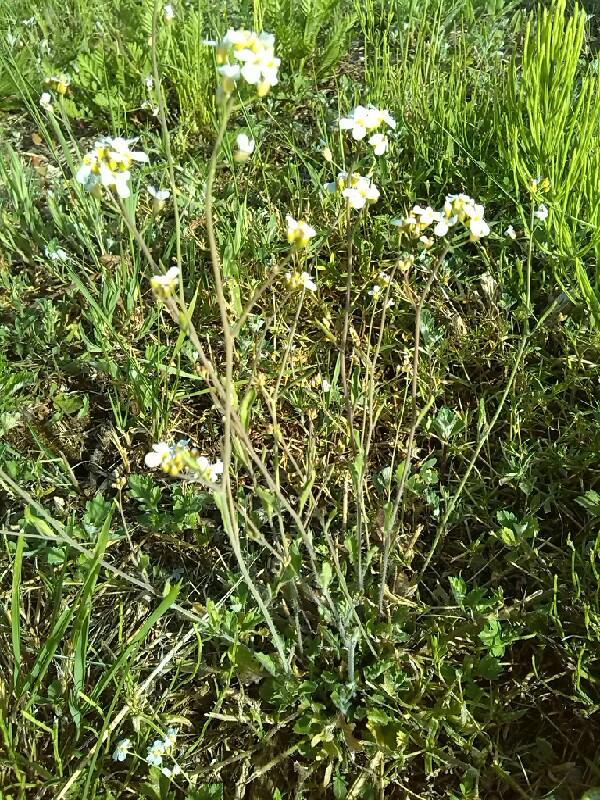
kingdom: Plantae
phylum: Tracheophyta
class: Magnoliopsida
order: Brassicales
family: Brassicaceae
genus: Arabidopsis
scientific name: Arabidopsis arenosa
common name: Sand rock-cress
